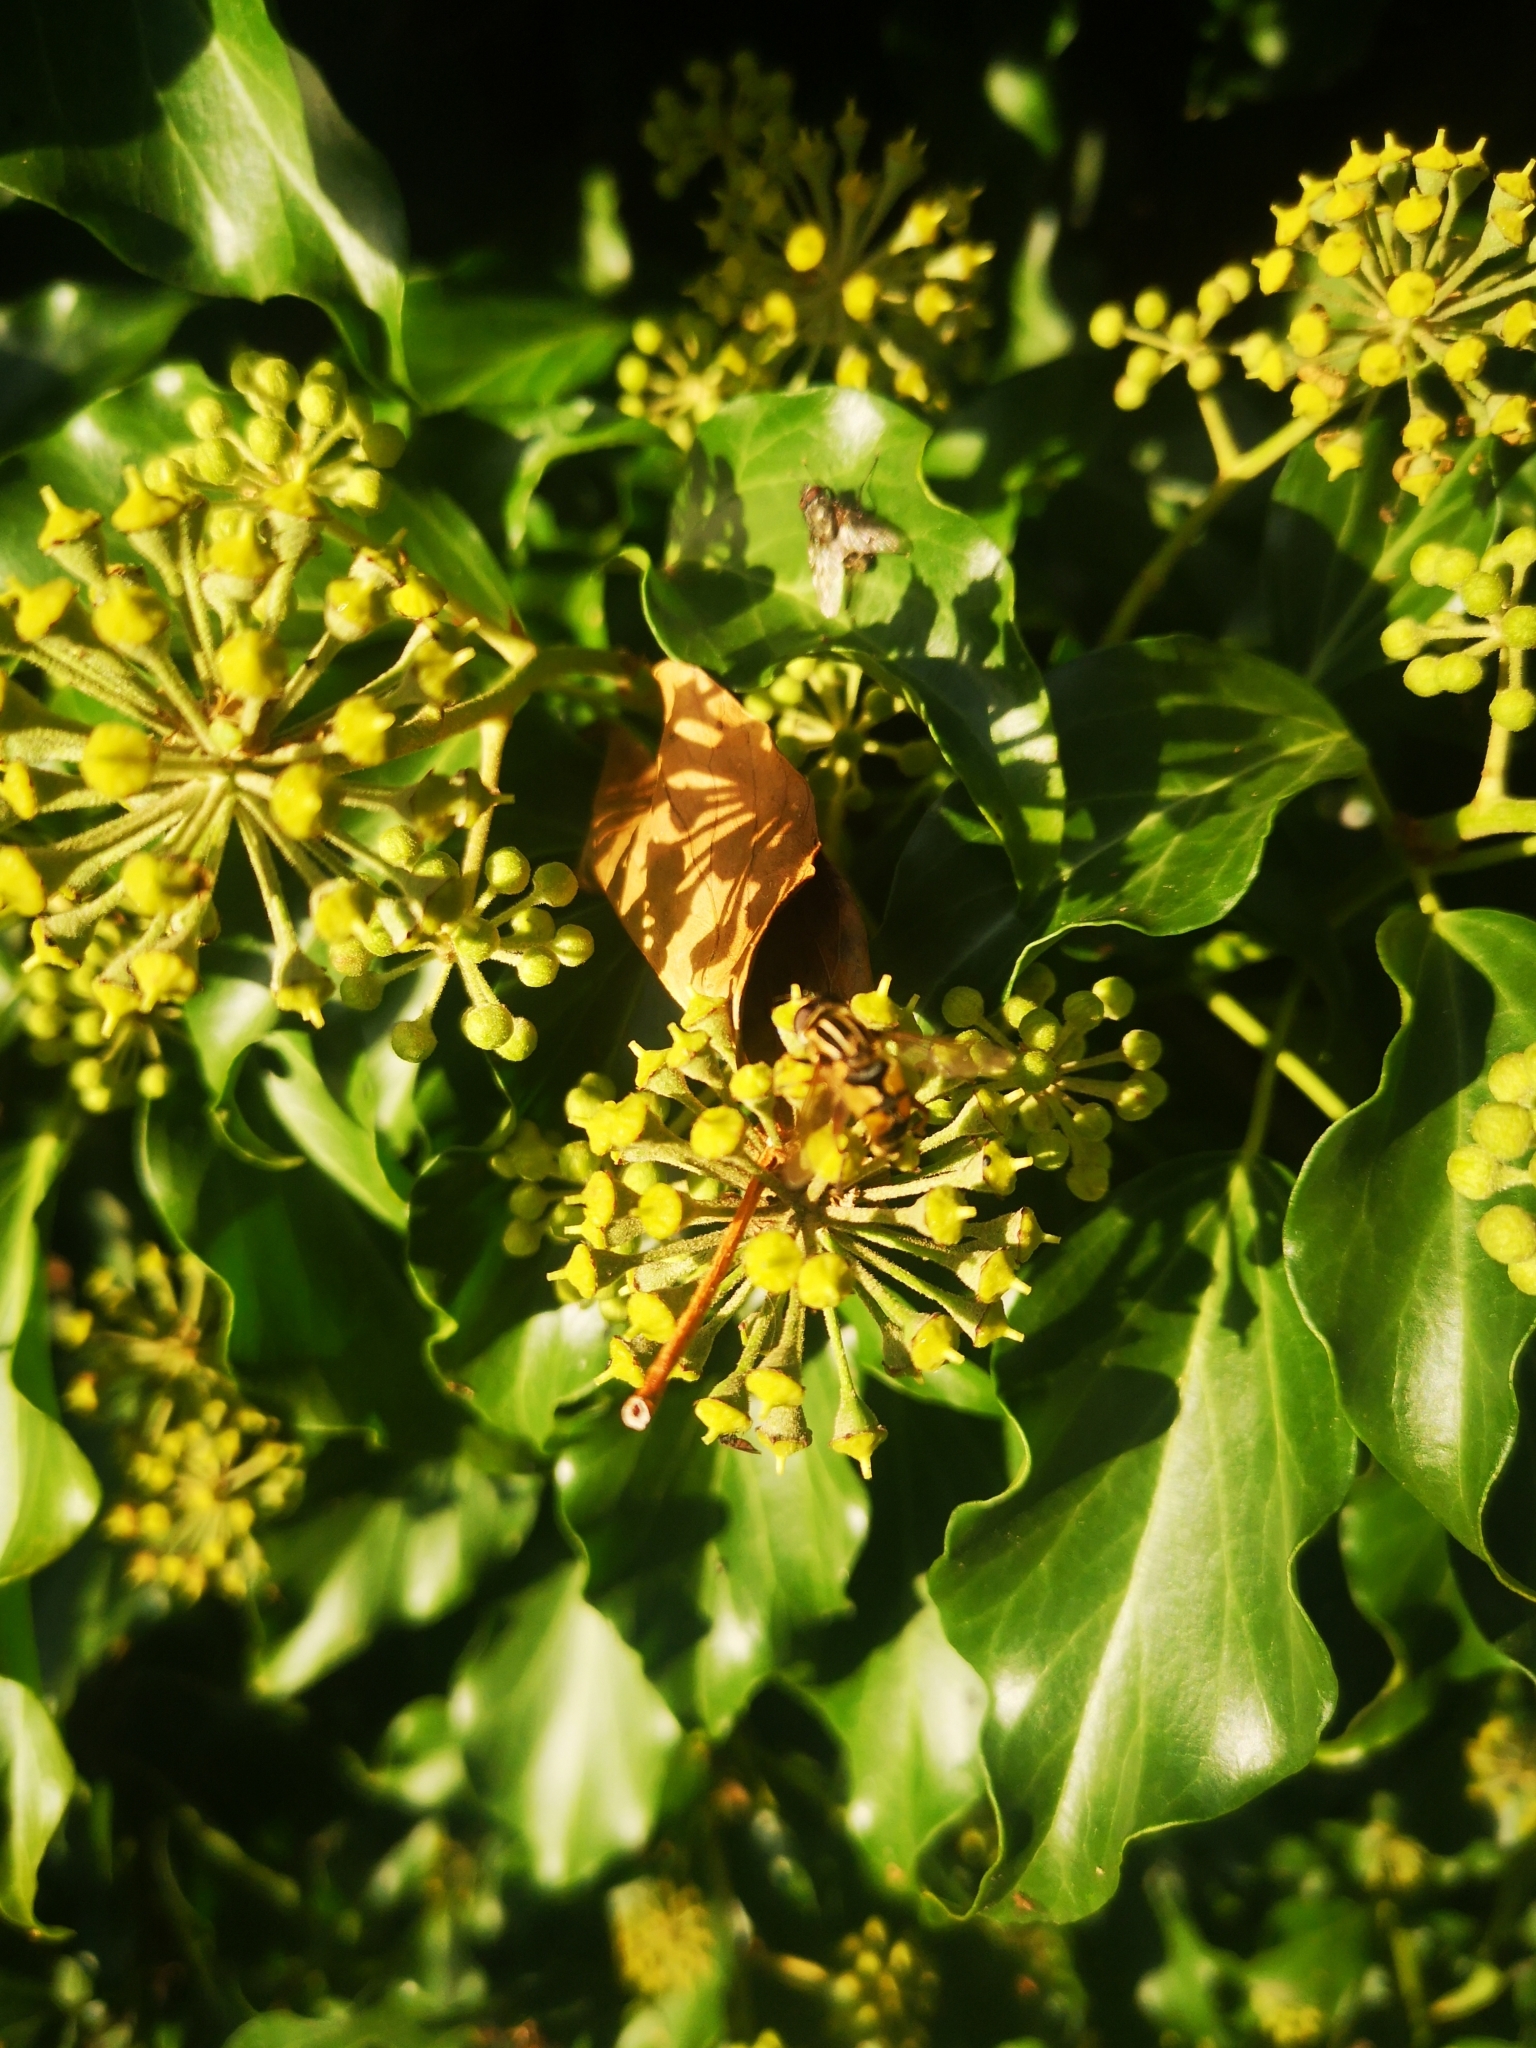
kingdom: Animalia
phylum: Arthropoda
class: Insecta
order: Diptera
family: Syrphidae
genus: Helophilus
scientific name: Helophilus pendulus
